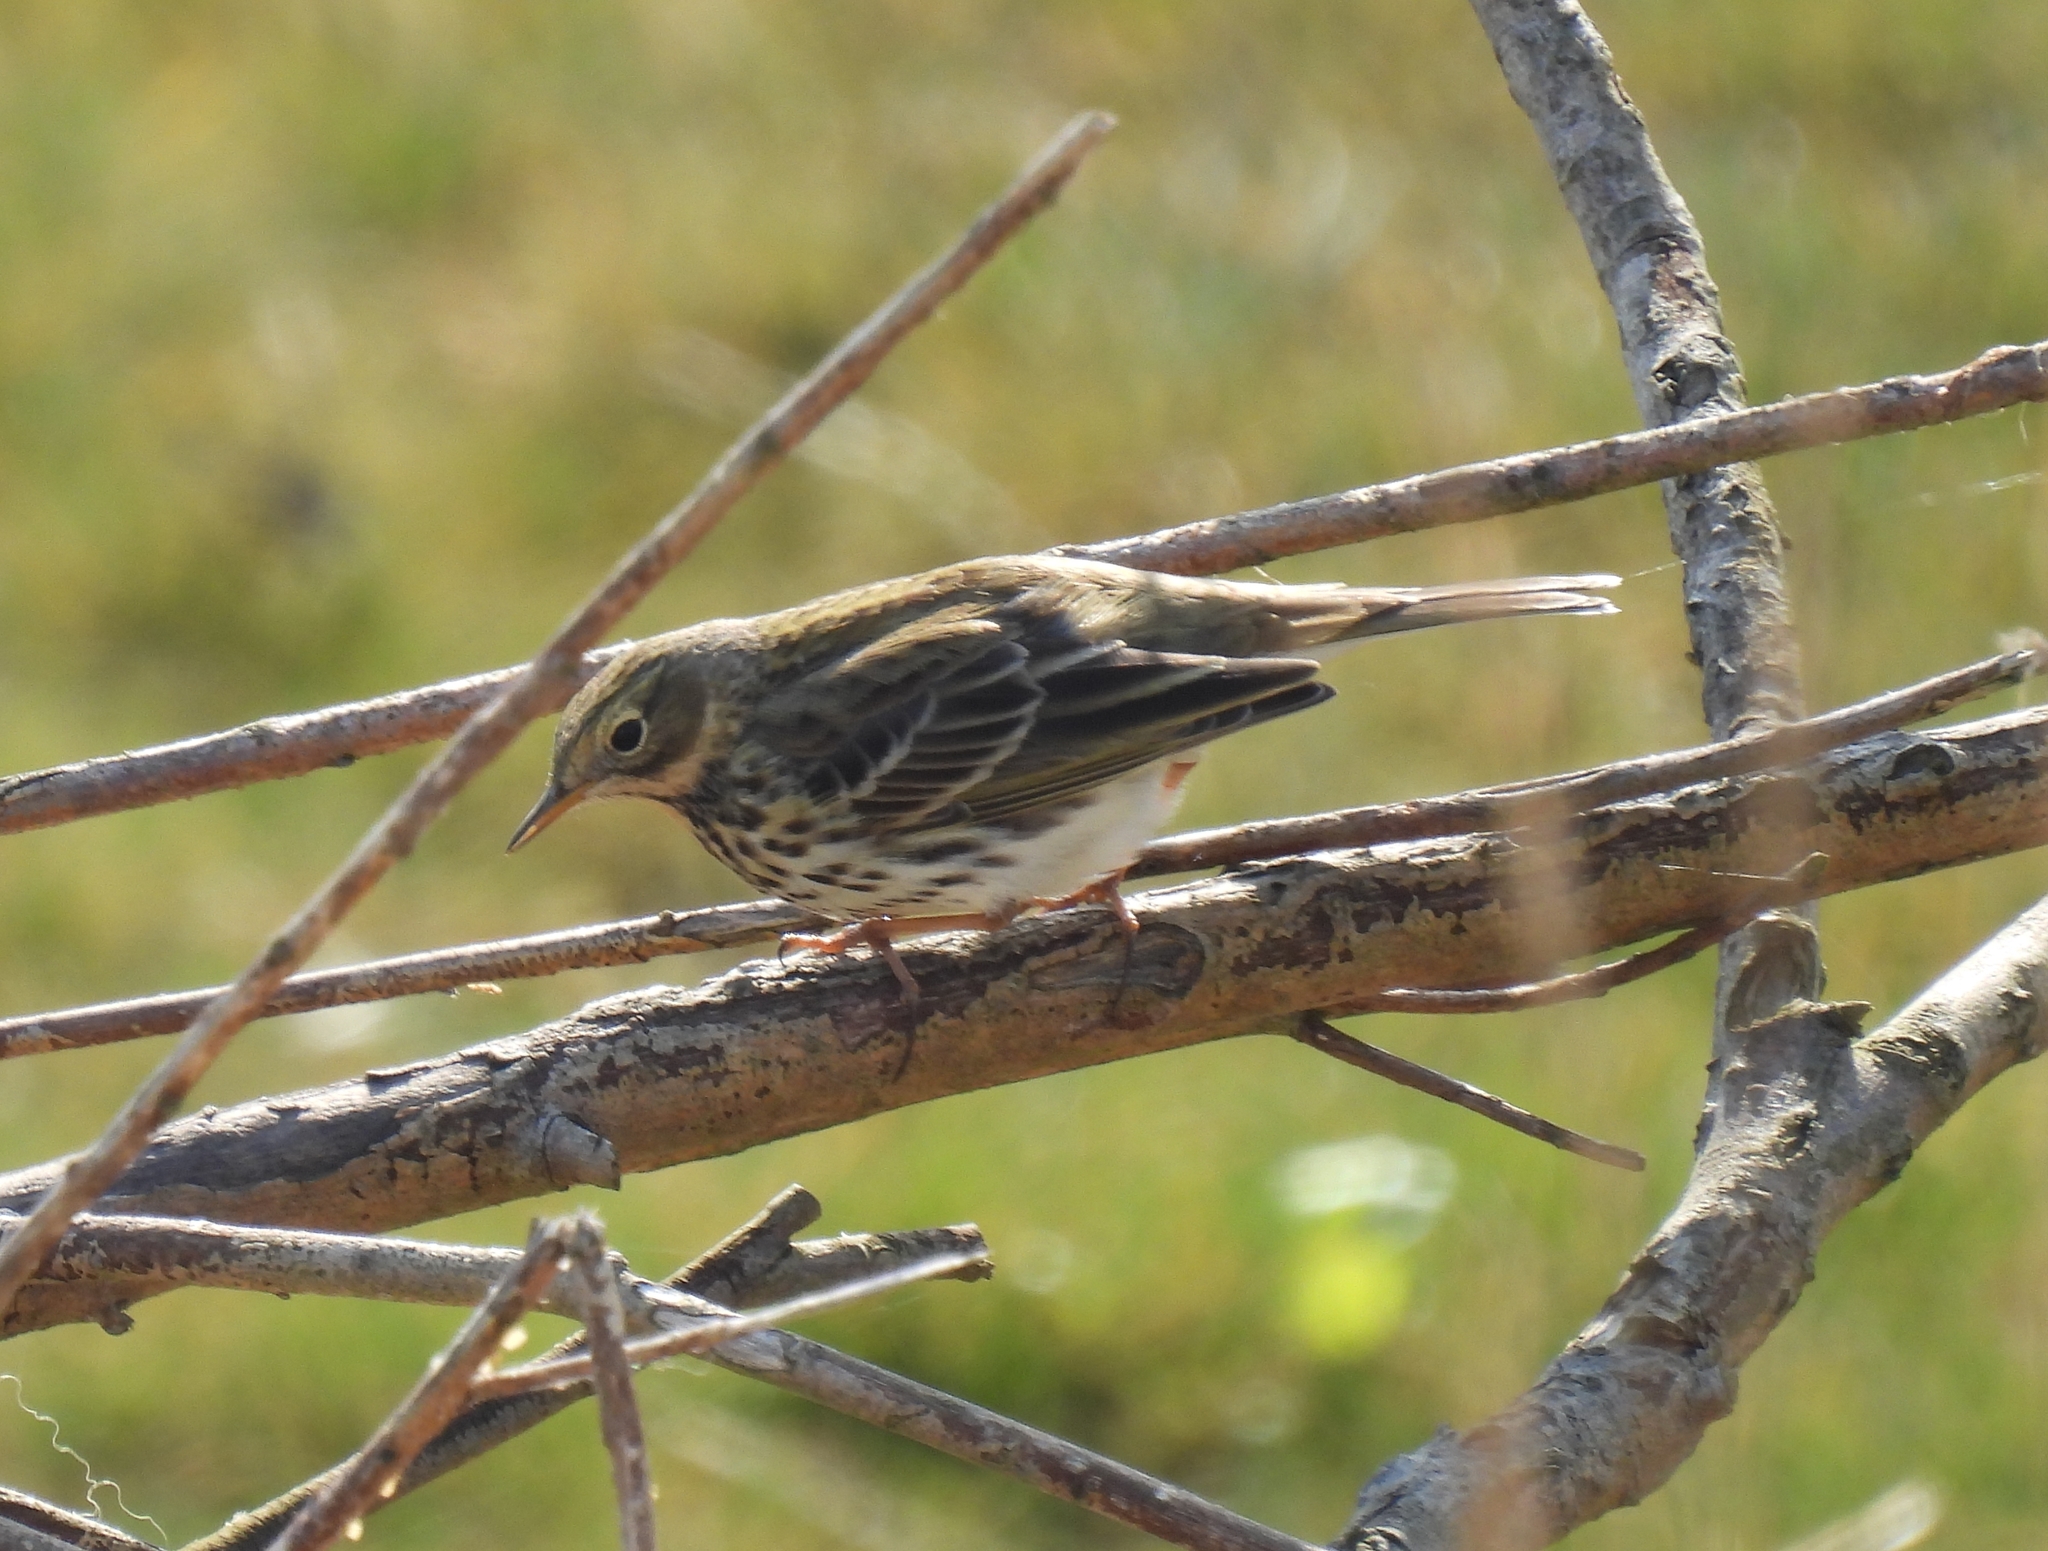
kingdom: Animalia
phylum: Chordata
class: Aves
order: Passeriformes
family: Motacillidae
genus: Anthus
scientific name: Anthus pratensis
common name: Meadow pipit
